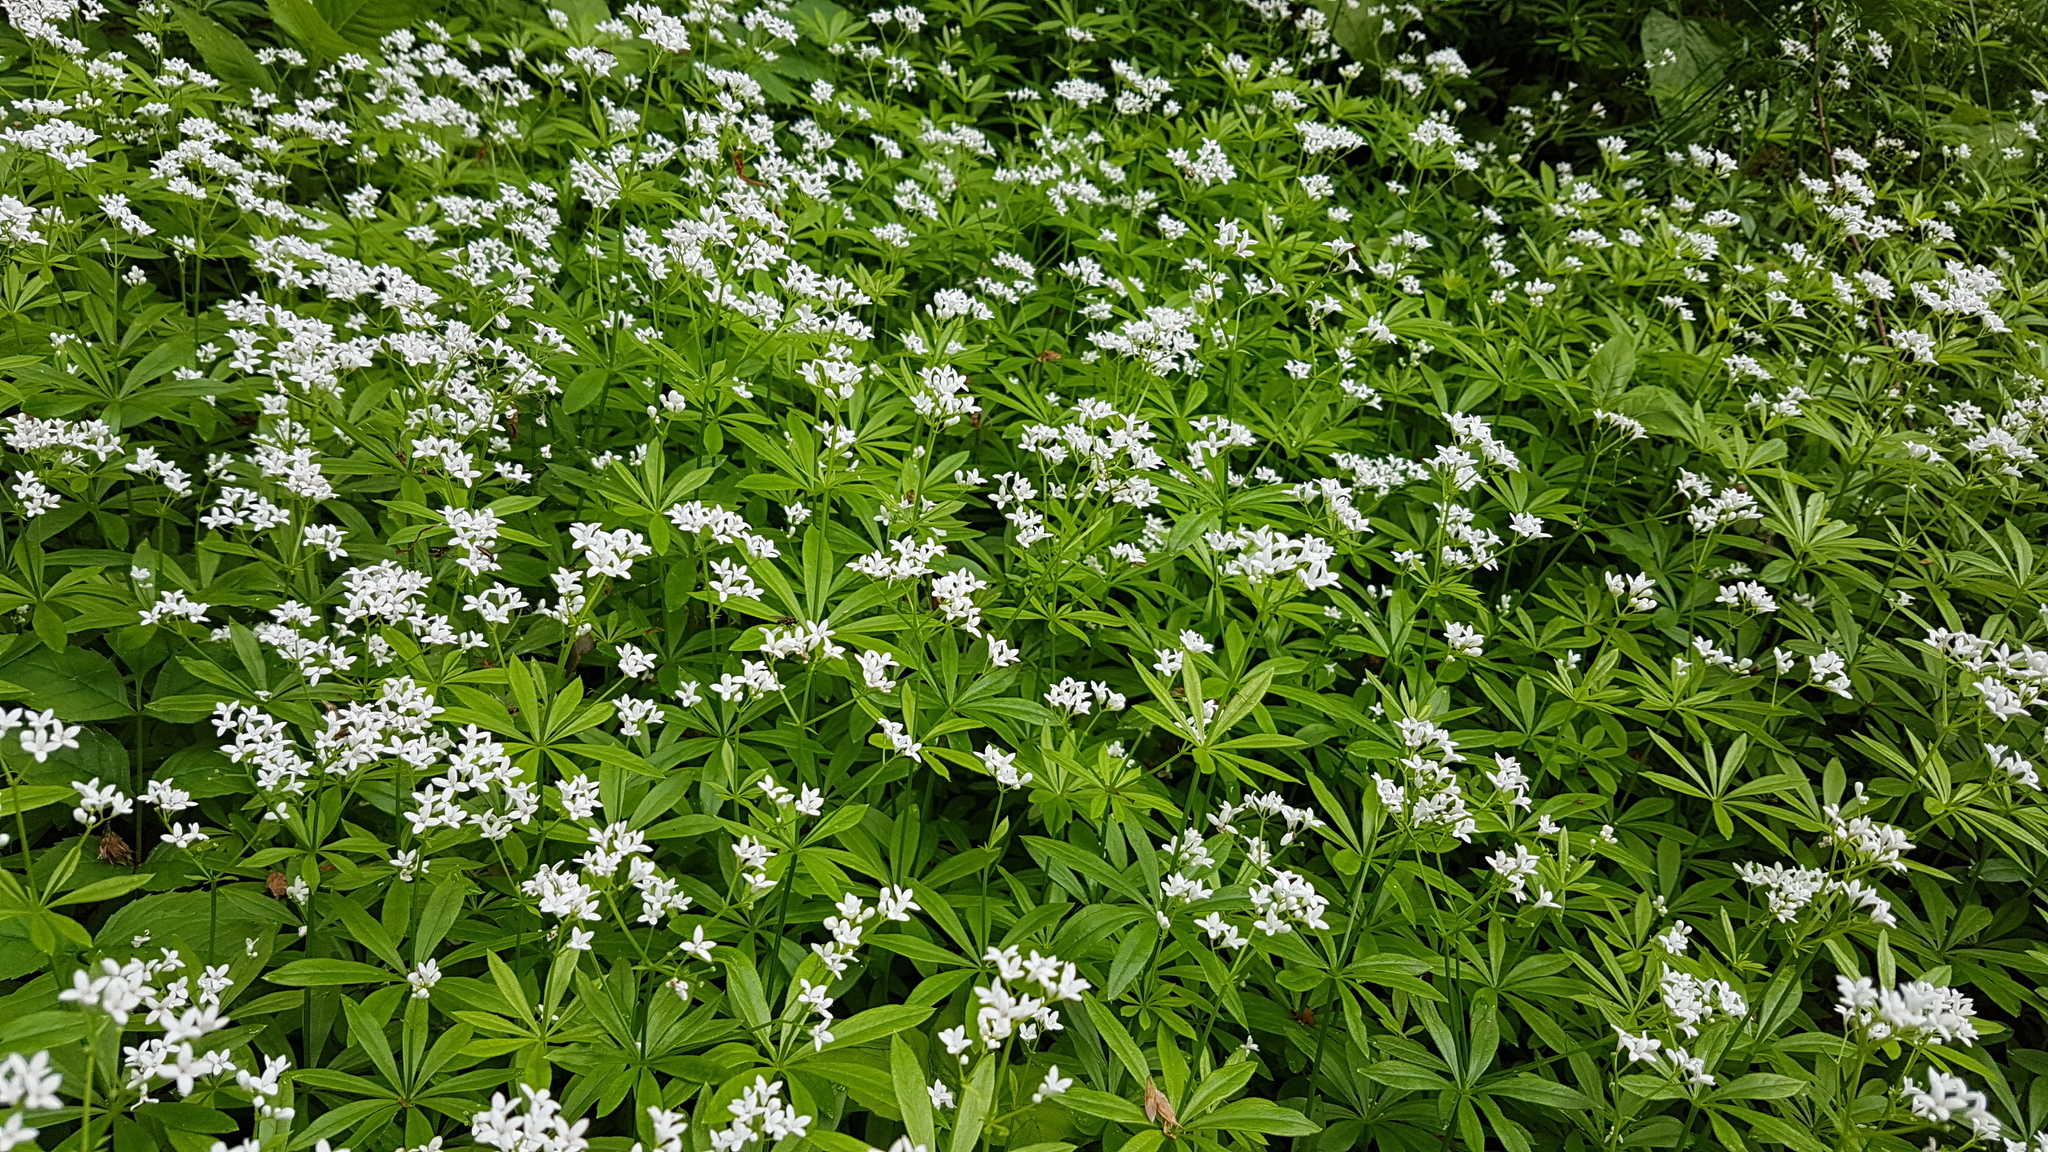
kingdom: Plantae
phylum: Tracheophyta
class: Magnoliopsida
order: Gentianales
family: Rubiaceae
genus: Galium
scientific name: Galium odoratum
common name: Sweet woodruff
